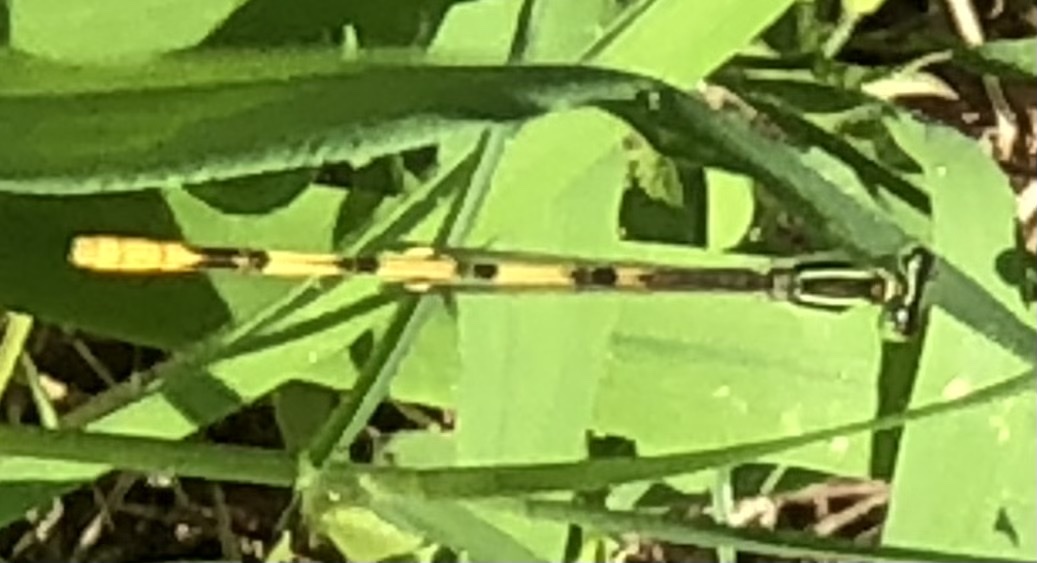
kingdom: Animalia
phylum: Arthropoda
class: Insecta
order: Odonata
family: Coenagrionidae
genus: Ischnura
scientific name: Ischnura hastata
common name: Citrine forktail
